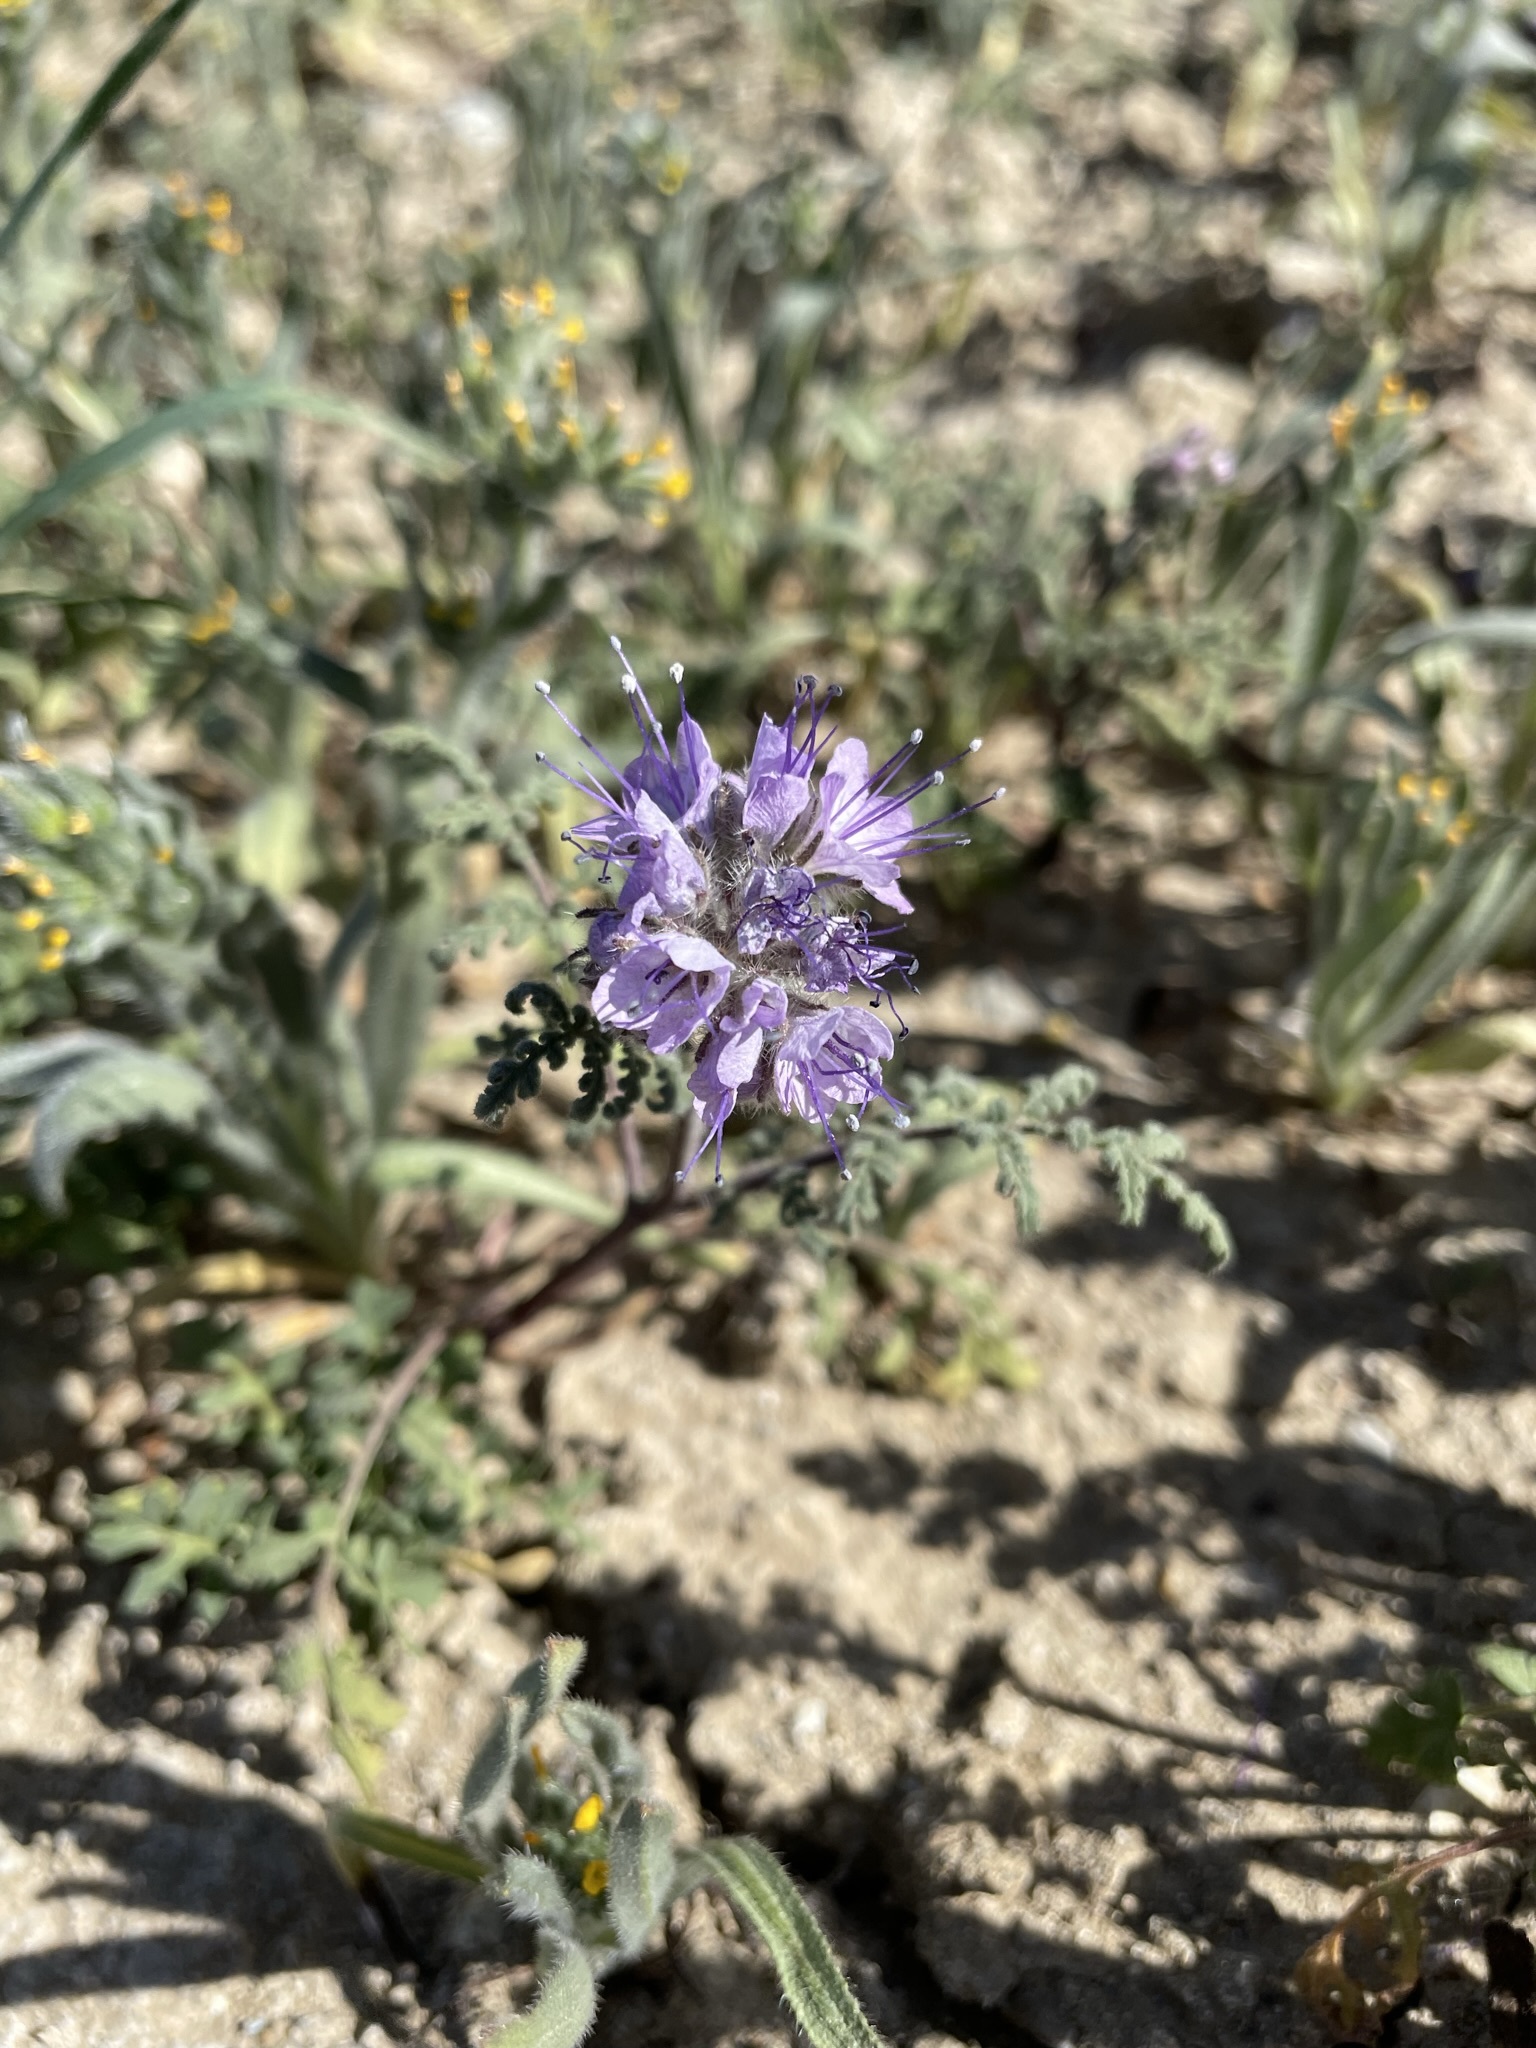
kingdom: Plantae
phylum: Tracheophyta
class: Magnoliopsida
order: Boraginales
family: Hydrophyllaceae
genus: Phacelia
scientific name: Phacelia tanacetifolia
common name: Phacelia
